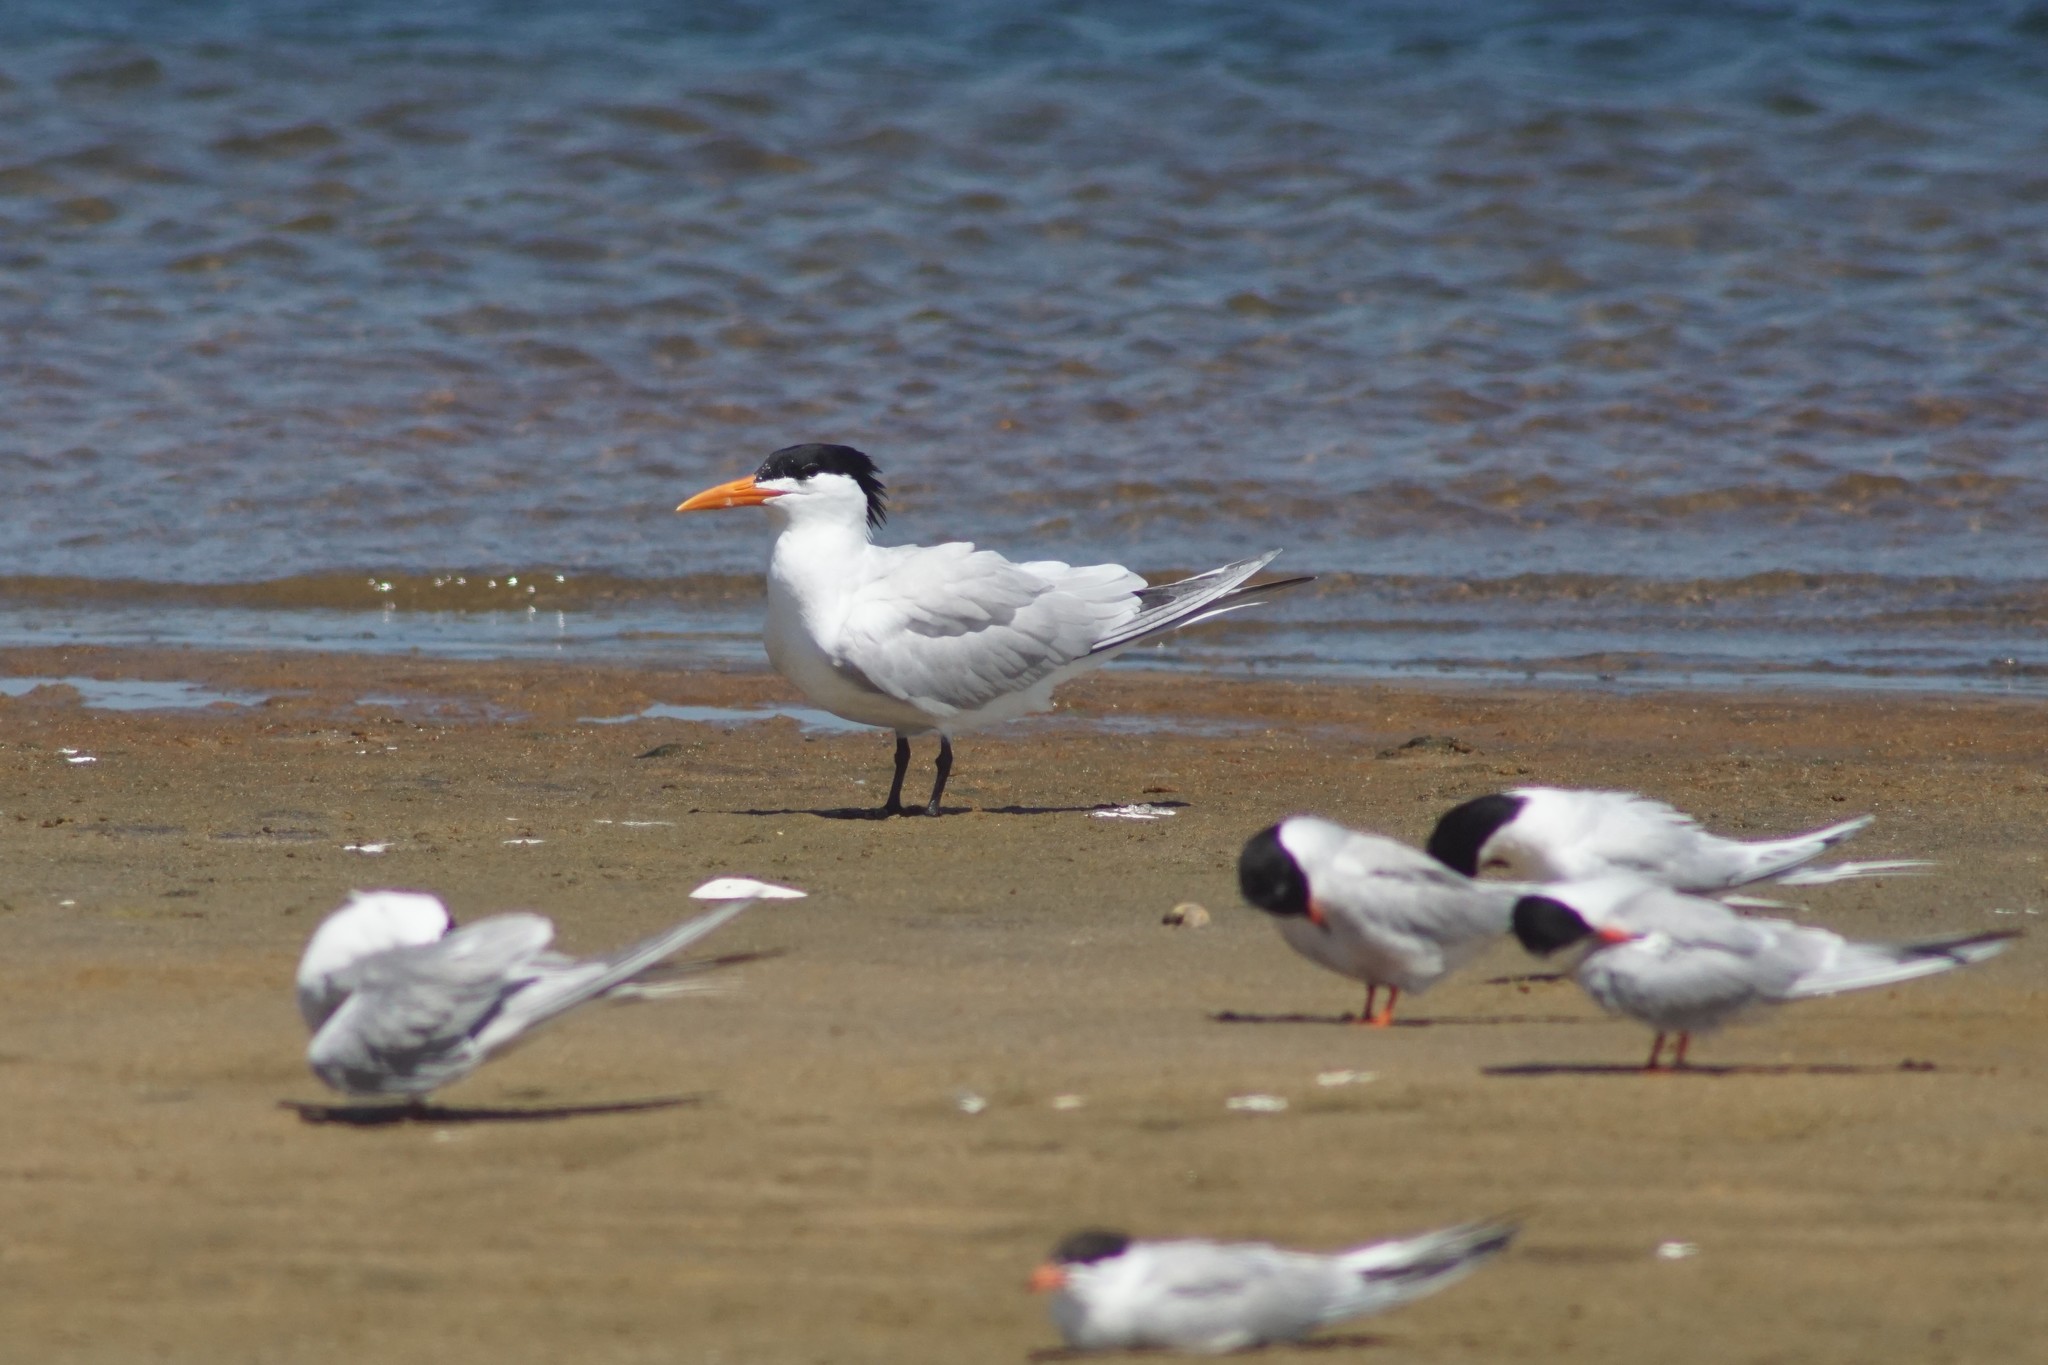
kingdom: Animalia
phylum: Chordata
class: Aves
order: Charadriiformes
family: Laridae
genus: Thalasseus
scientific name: Thalasseus maximus
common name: Royal tern
